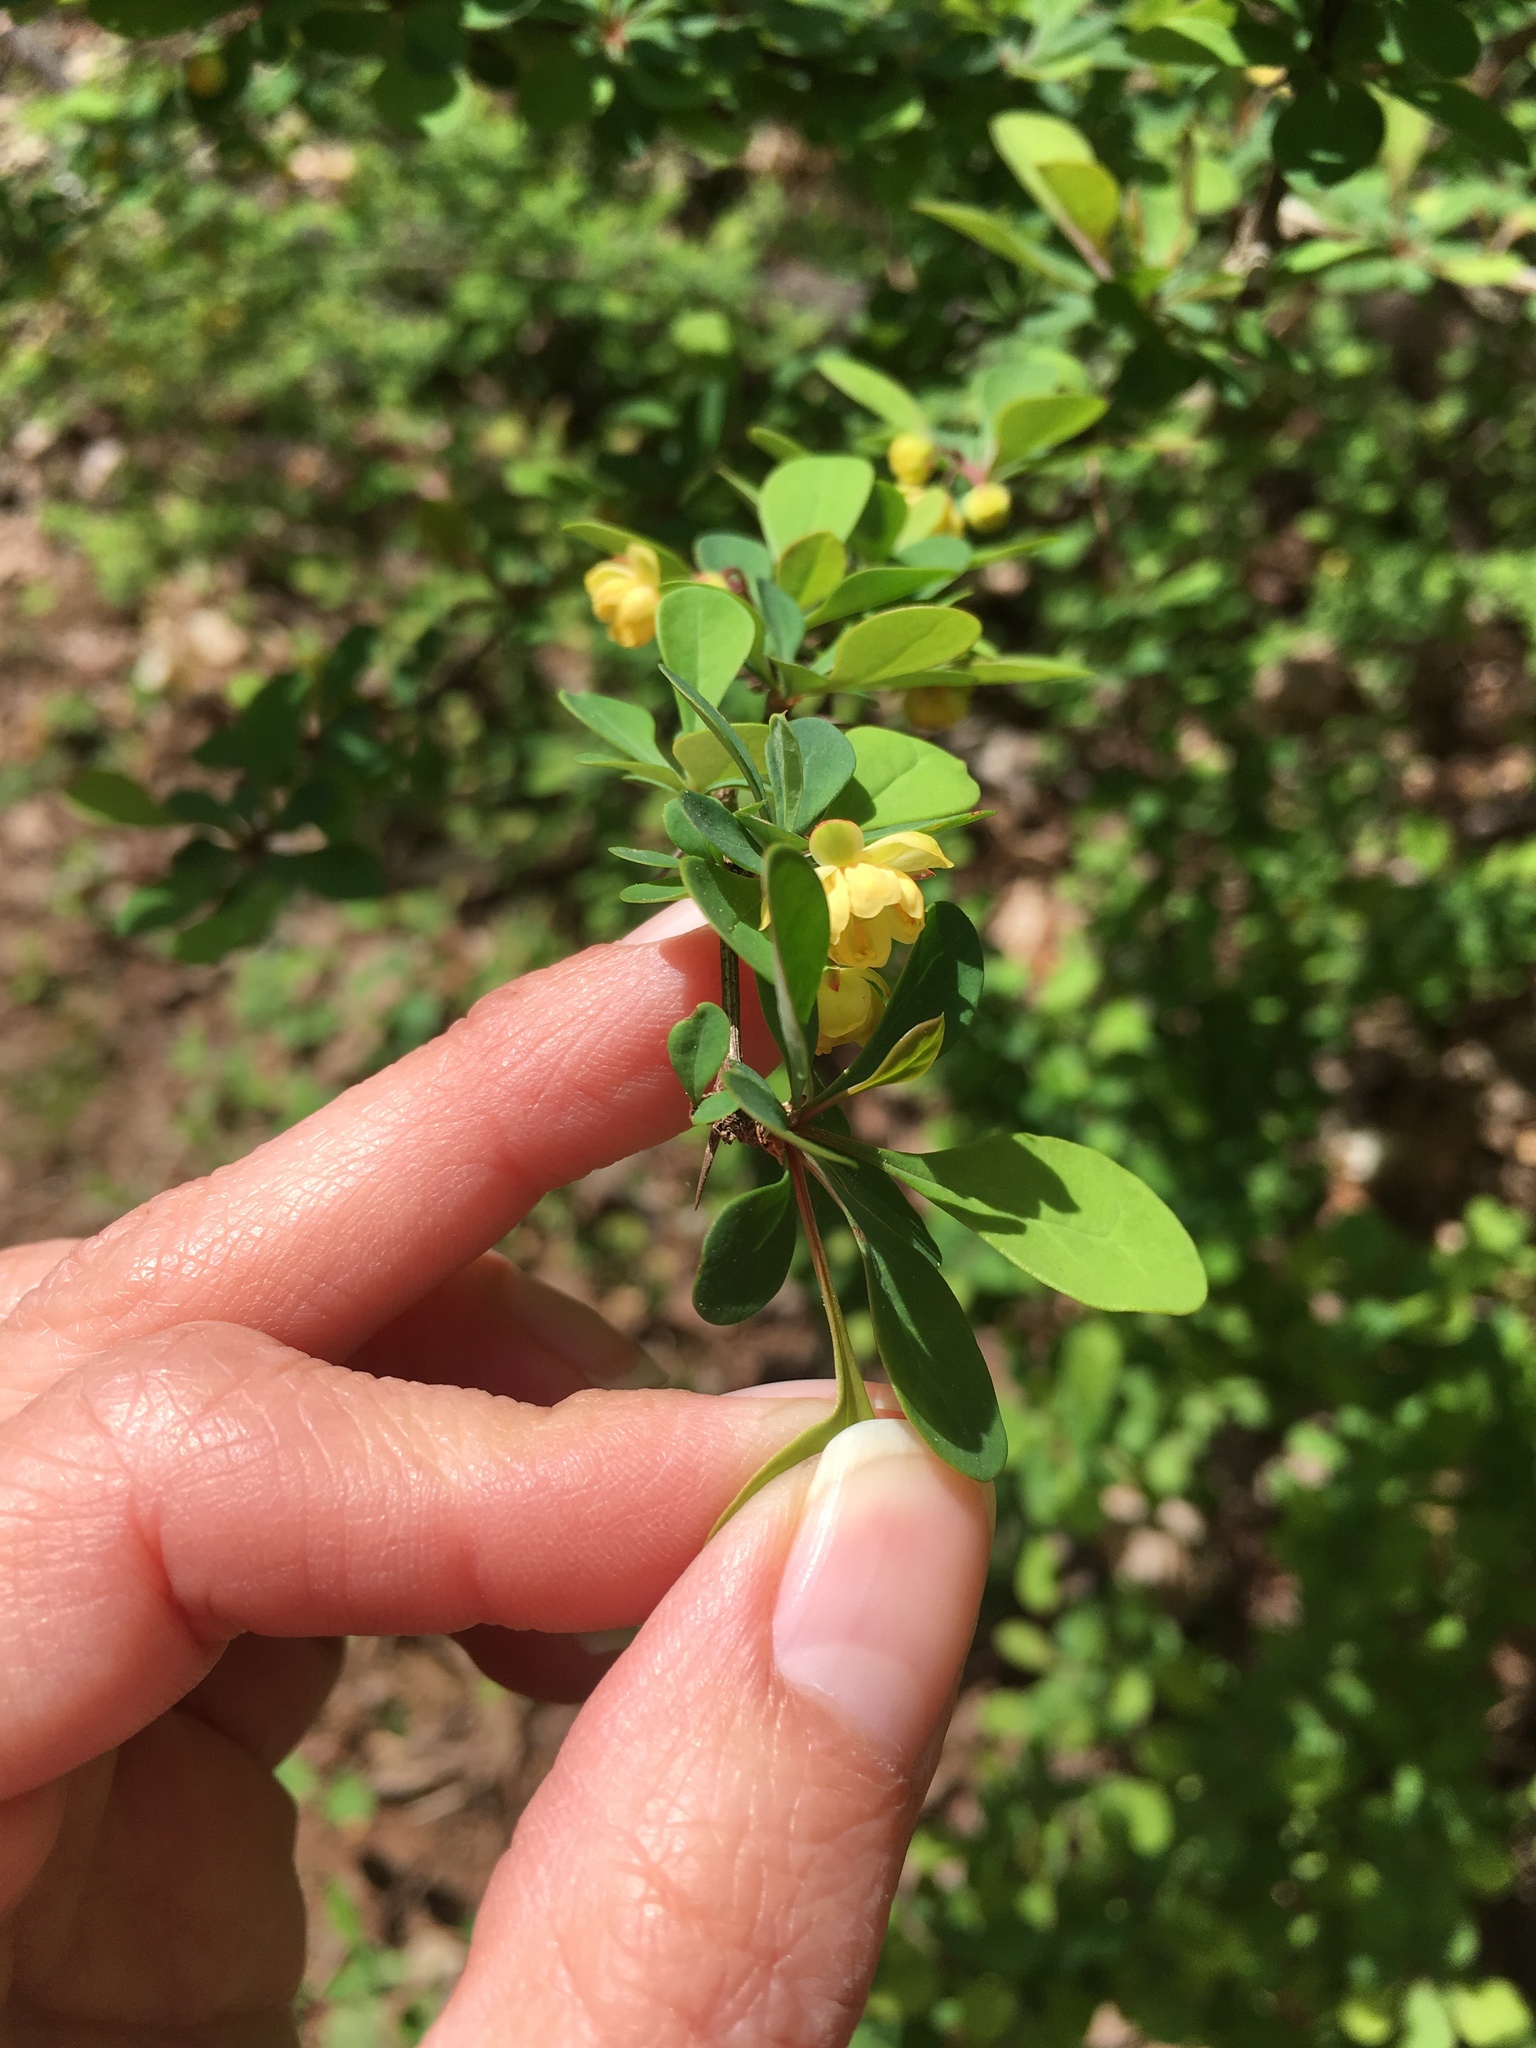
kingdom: Plantae
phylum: Tracheophyta
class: Magnoliopsida
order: Ranunculales
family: Berberidaceae
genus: Berberis
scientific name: Berberis thunbergii
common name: Japanese barberry
